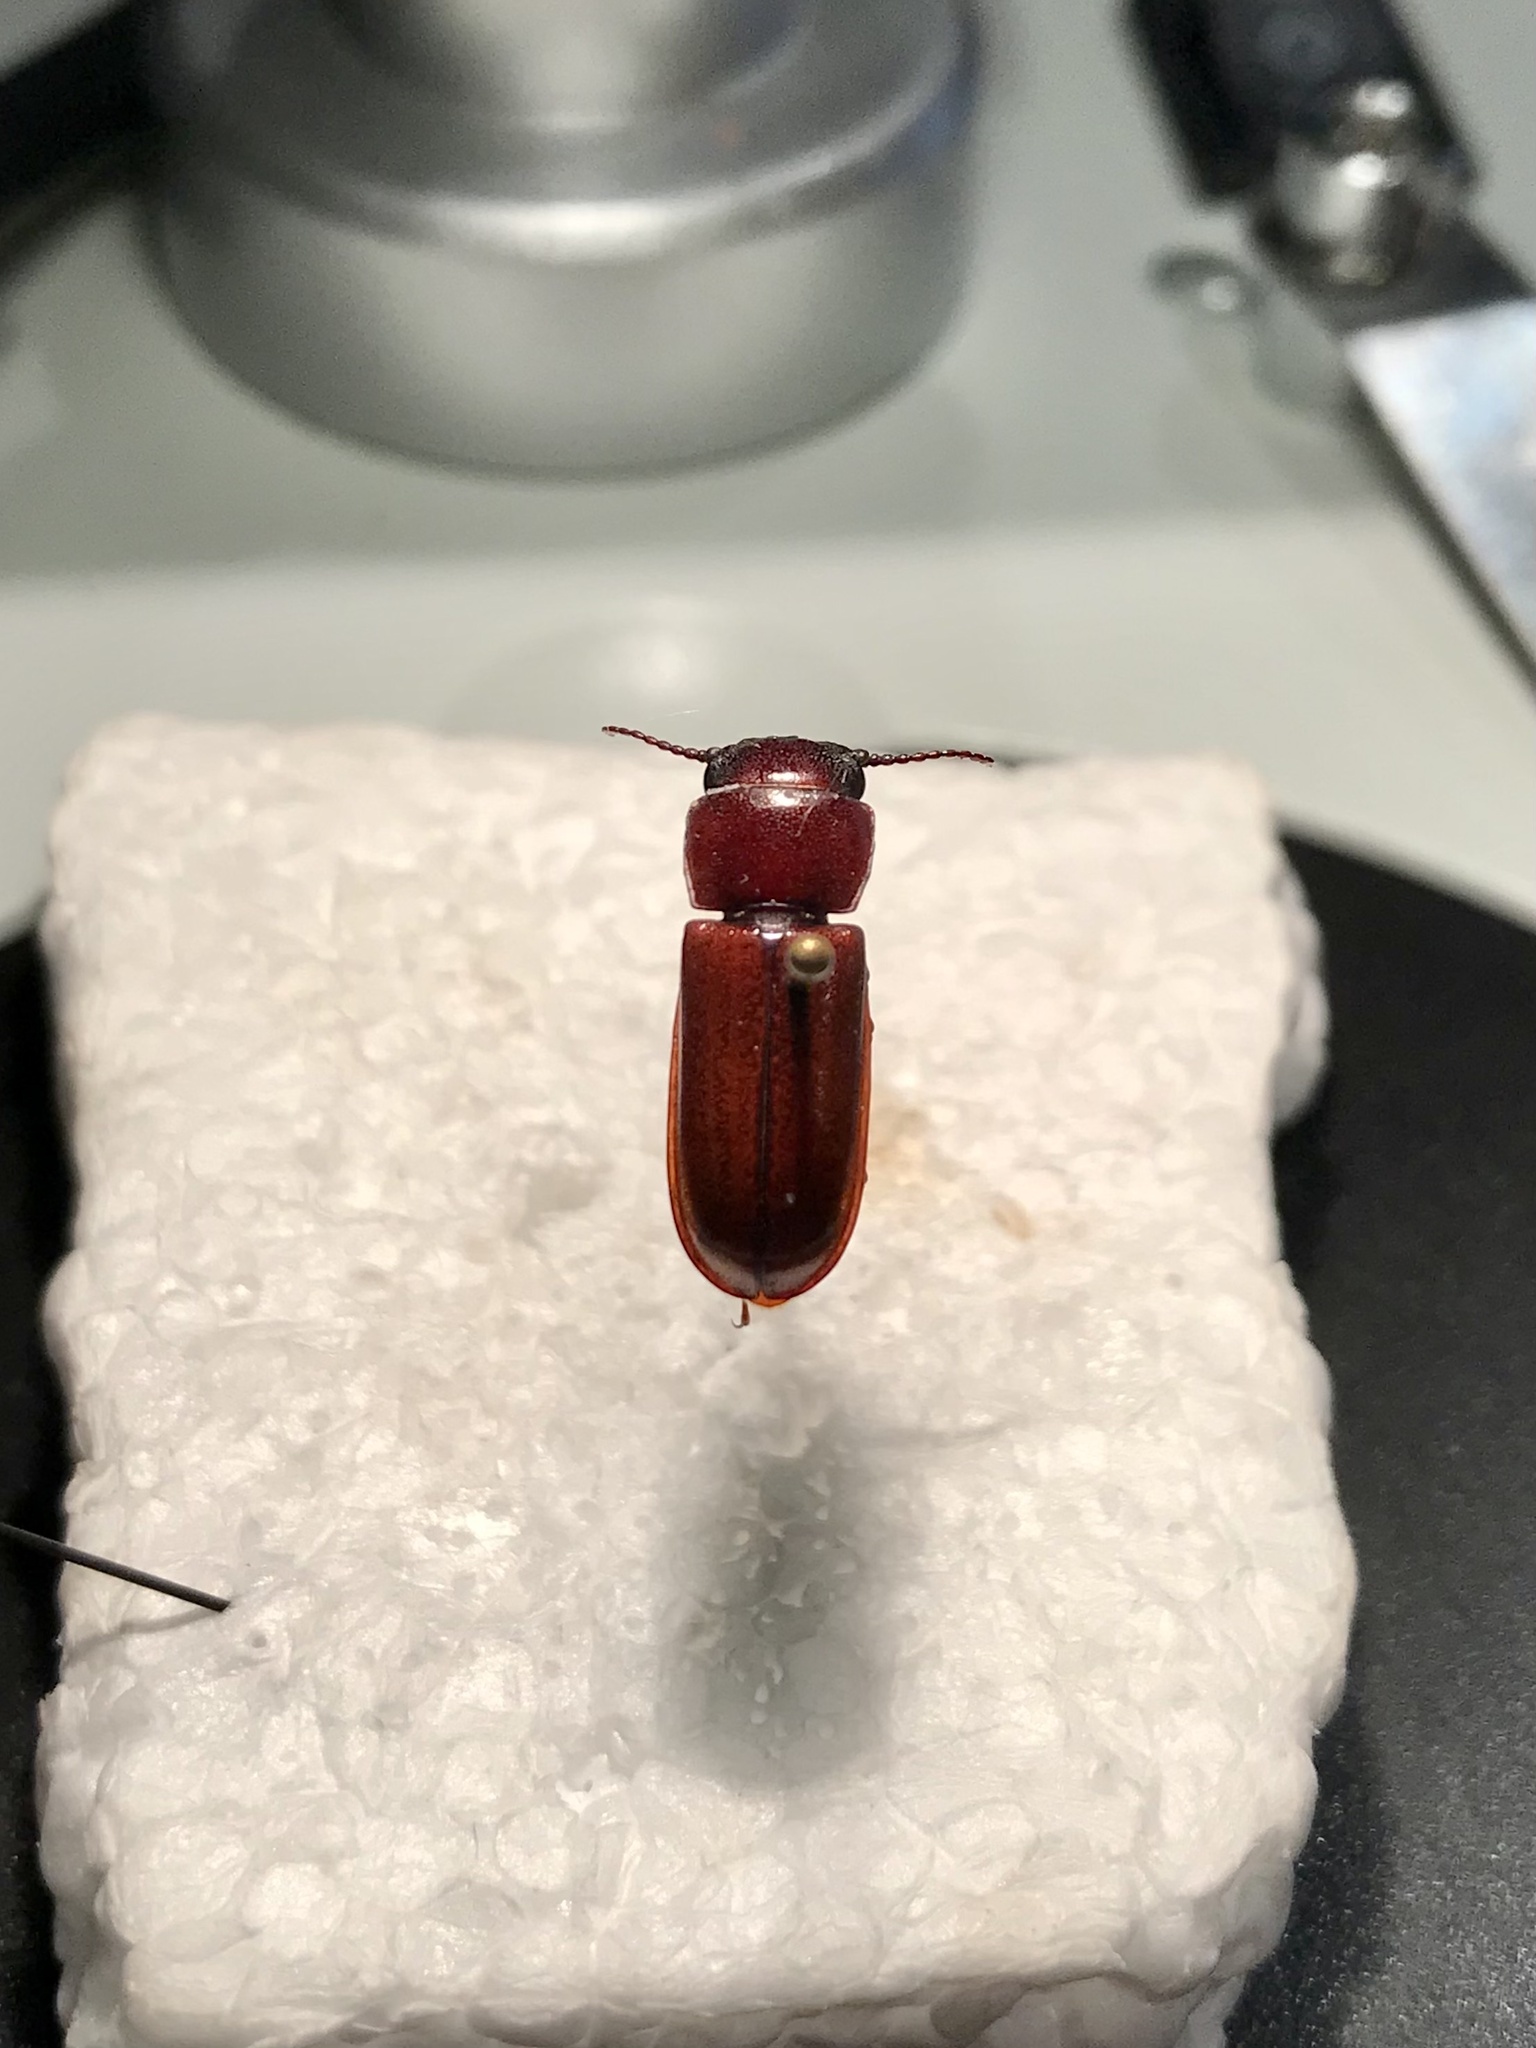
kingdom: Animalia
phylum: Arthropoda
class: Insecta
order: Coleoptera
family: Cerambycidae
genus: Neandra
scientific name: Neandra brunnea
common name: Pole borer
